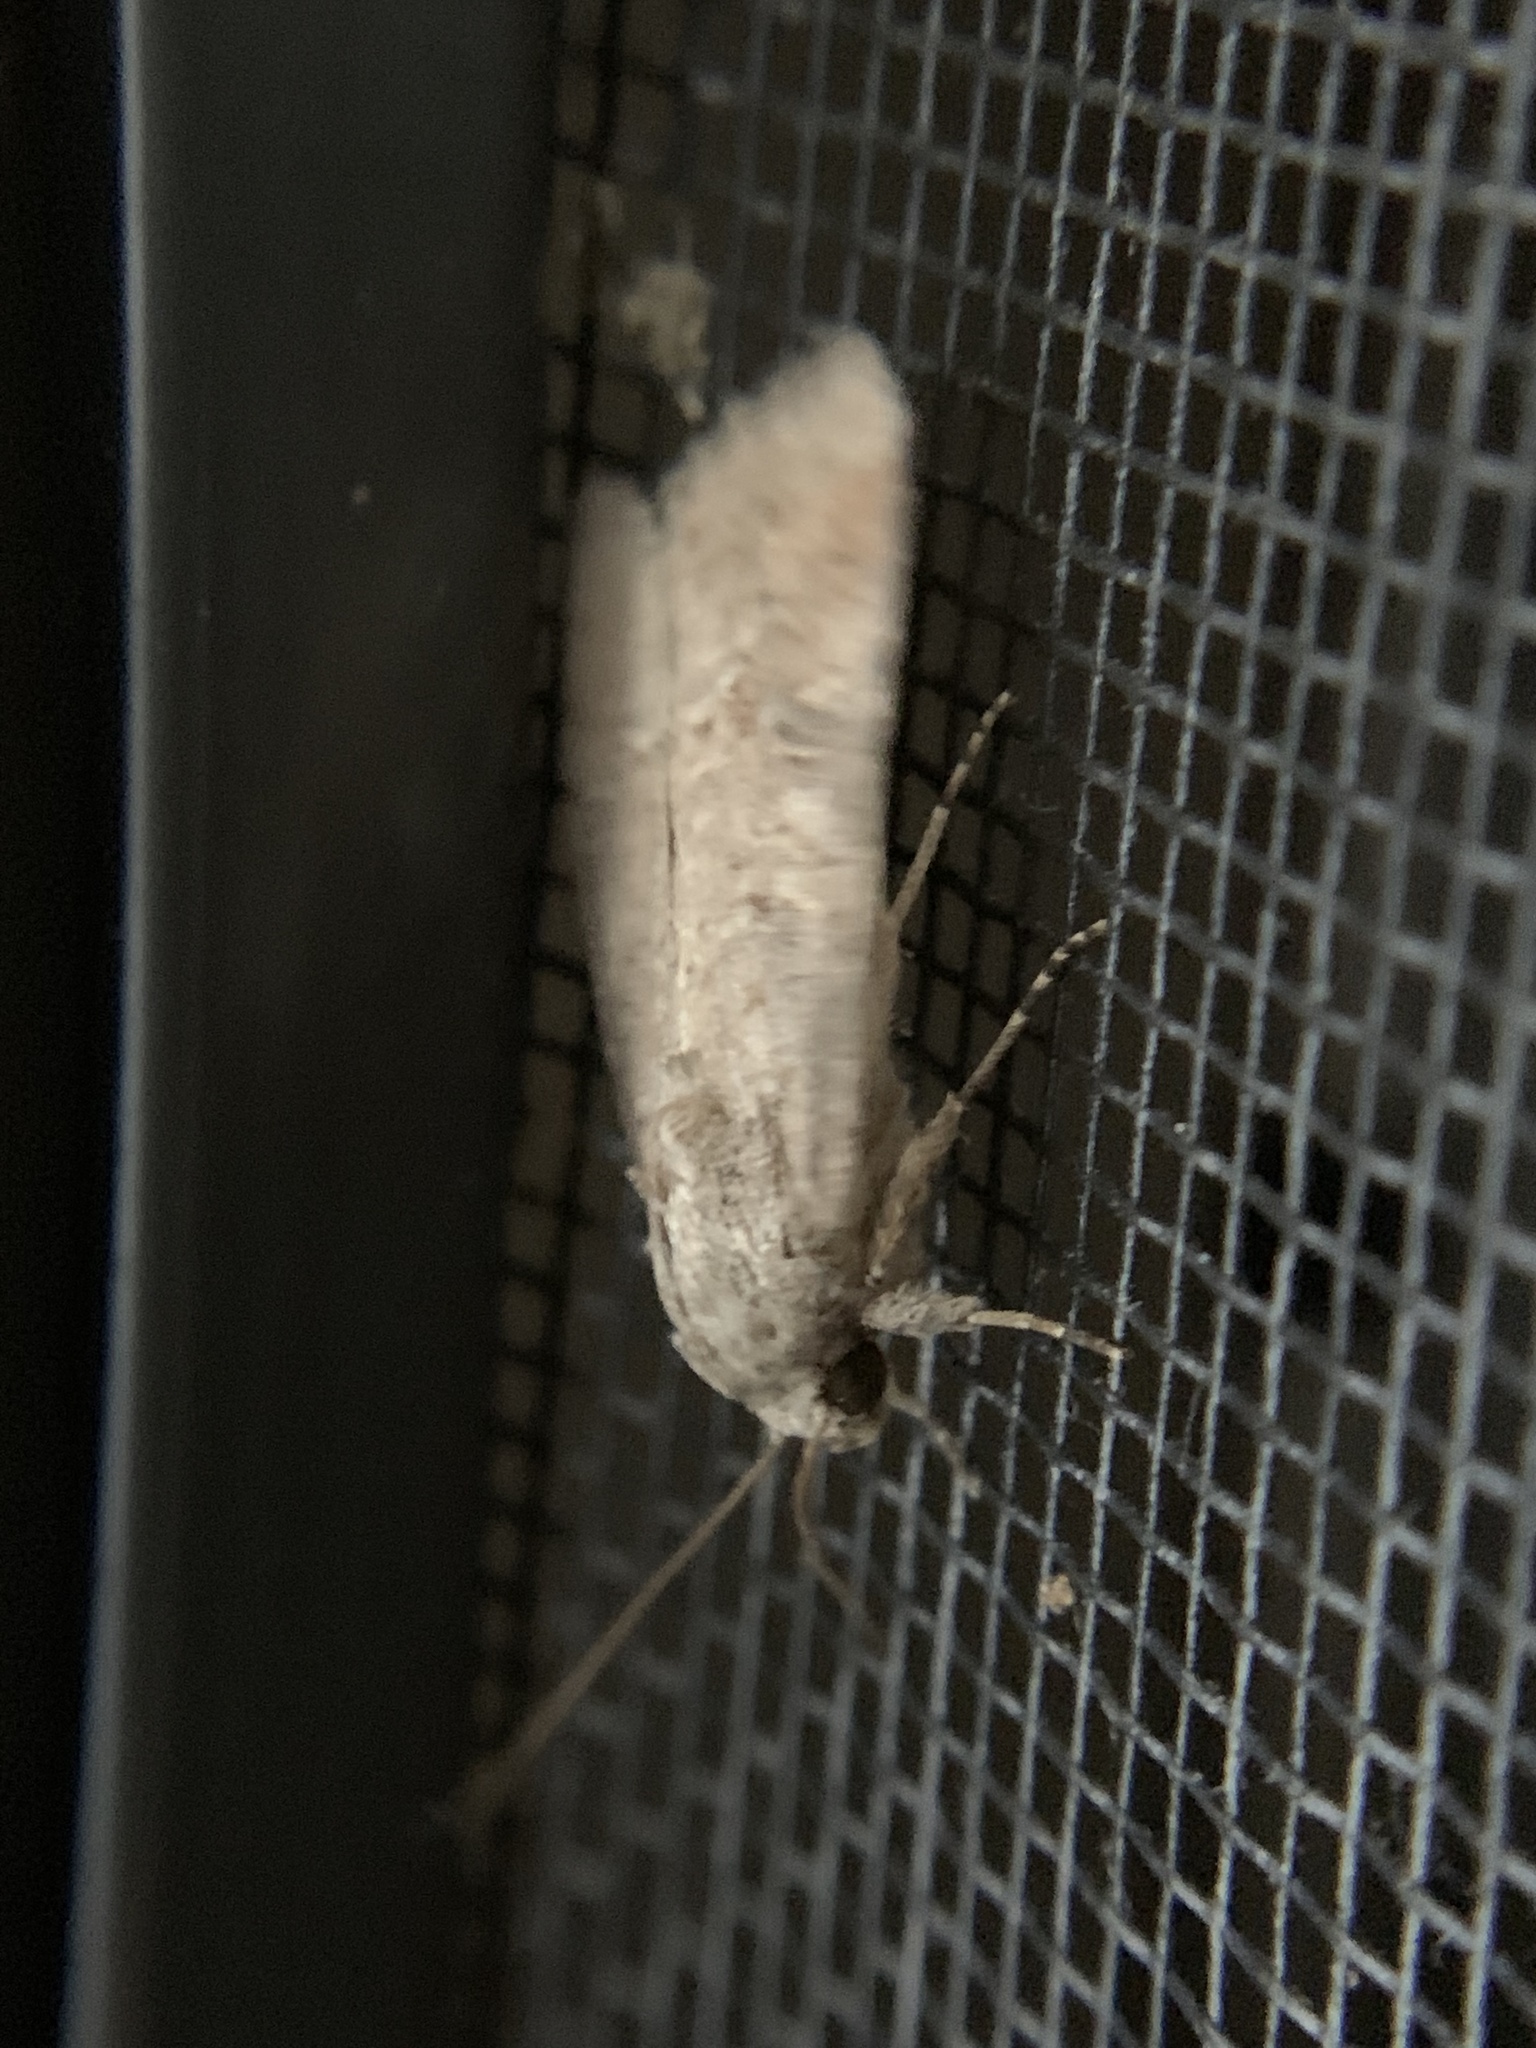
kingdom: Animalia
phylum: Arthropoda
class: Insecta
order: Lepidoptera
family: Noctuidae
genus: Spodoptera
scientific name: Spodoptera frugiperda
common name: Fall armyworm
